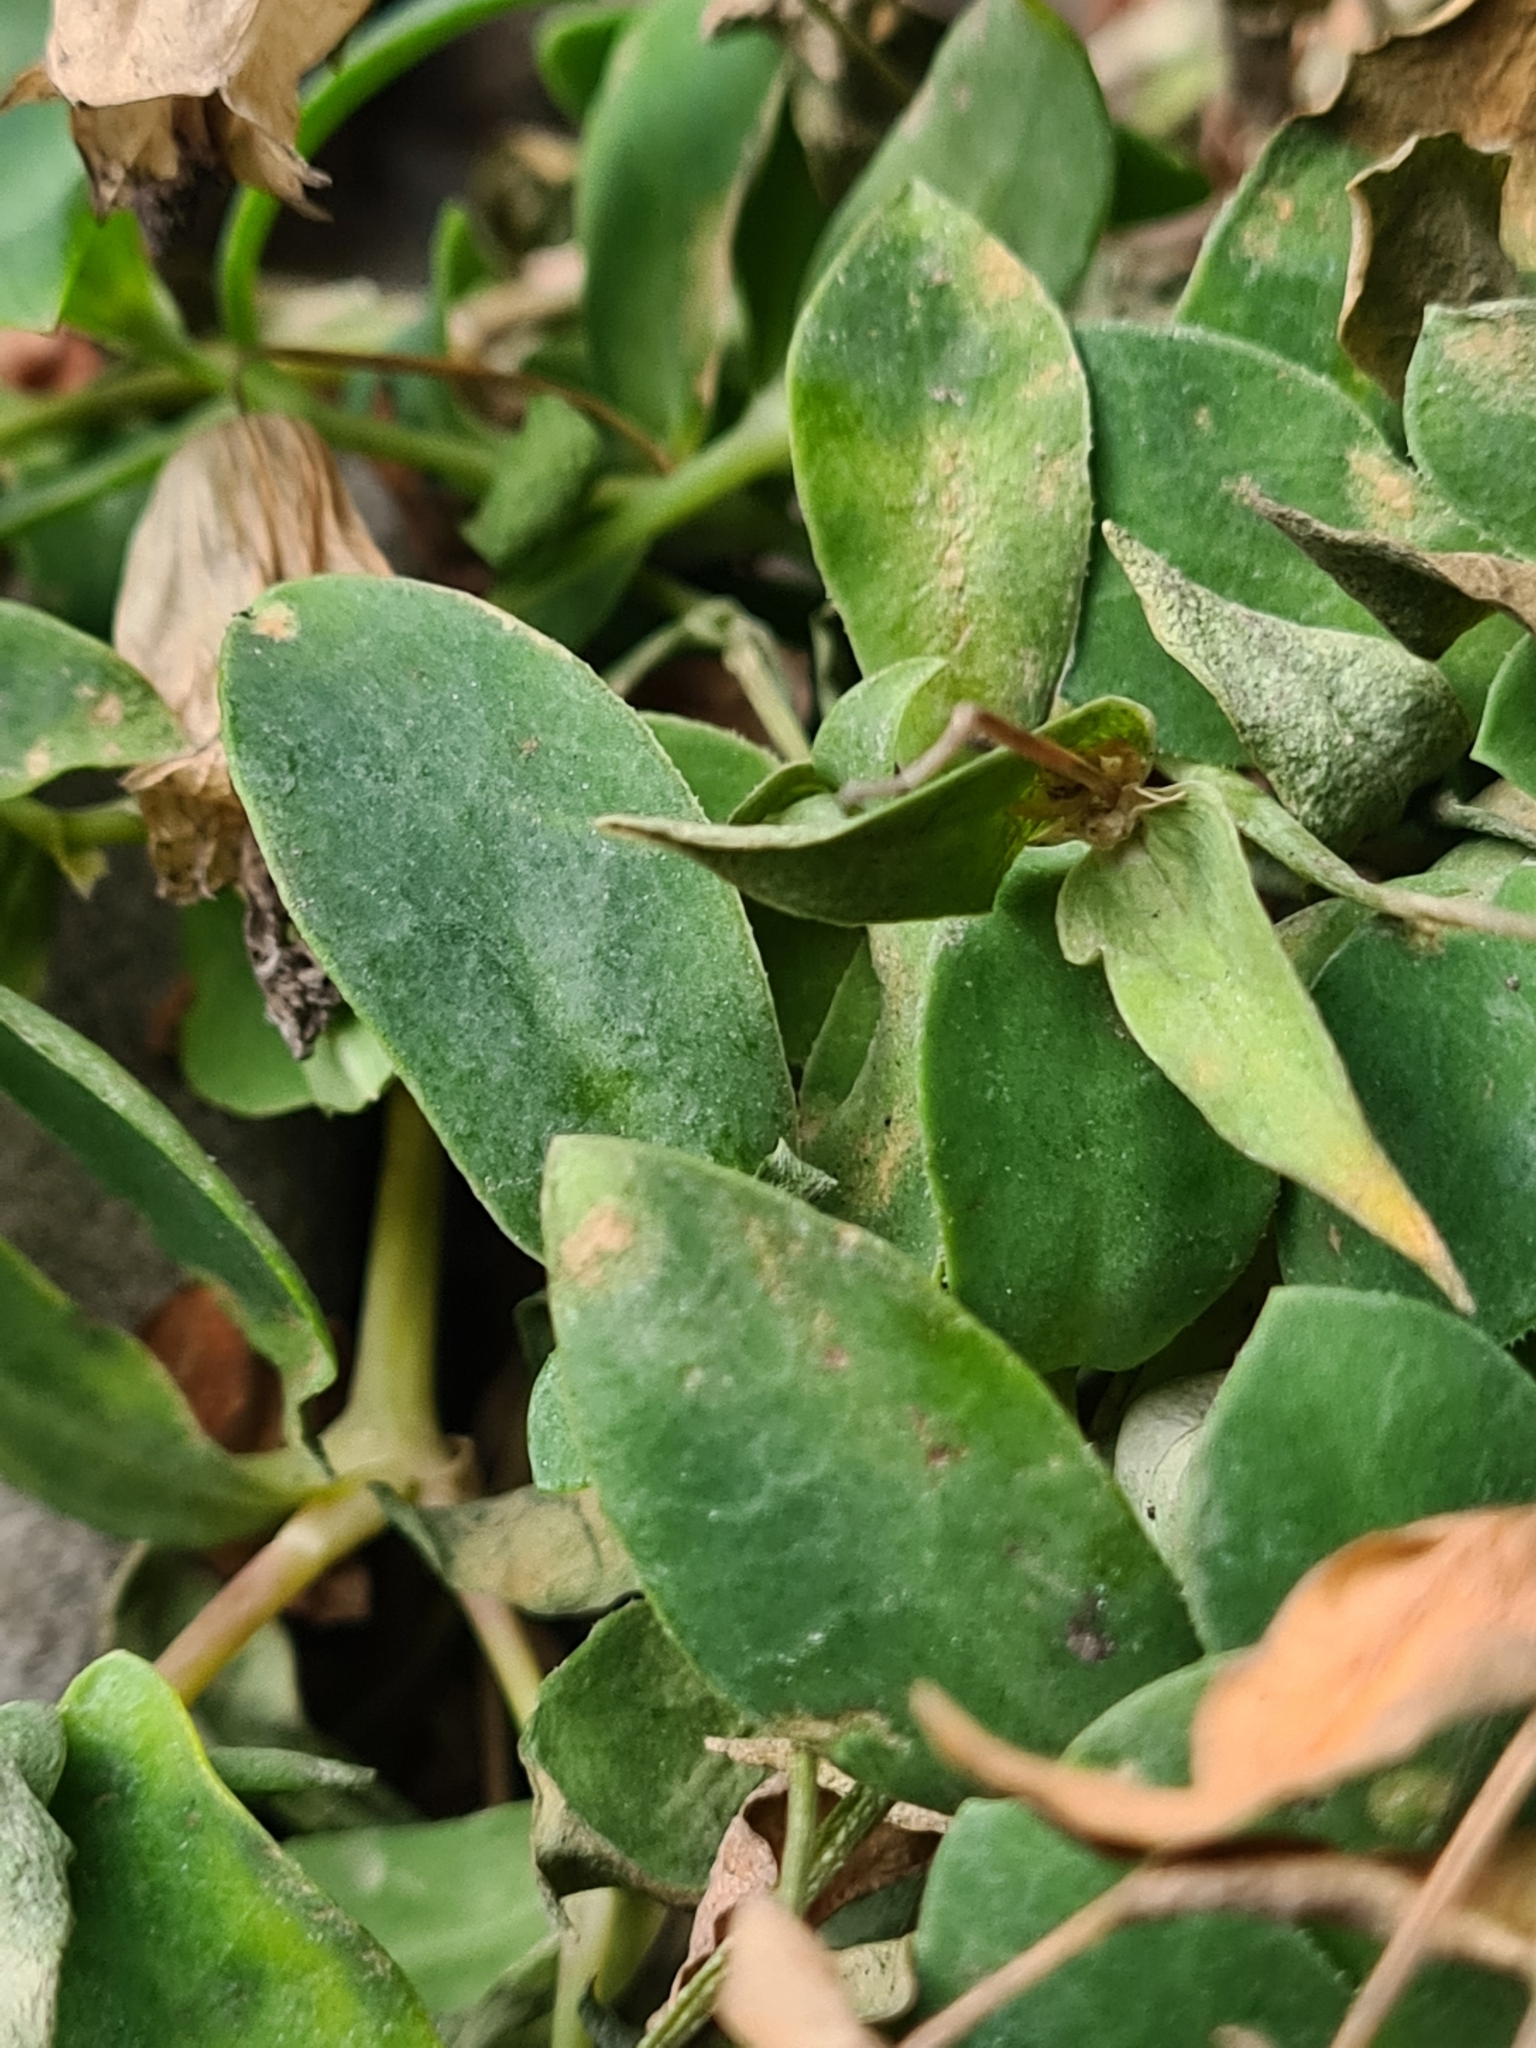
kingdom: Plantae
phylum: Tracheophyta
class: Magnoliopsida
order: Caryophyllales
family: Caryophyllaceae
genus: Silene
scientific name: Silene uniflora
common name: Sea campion
